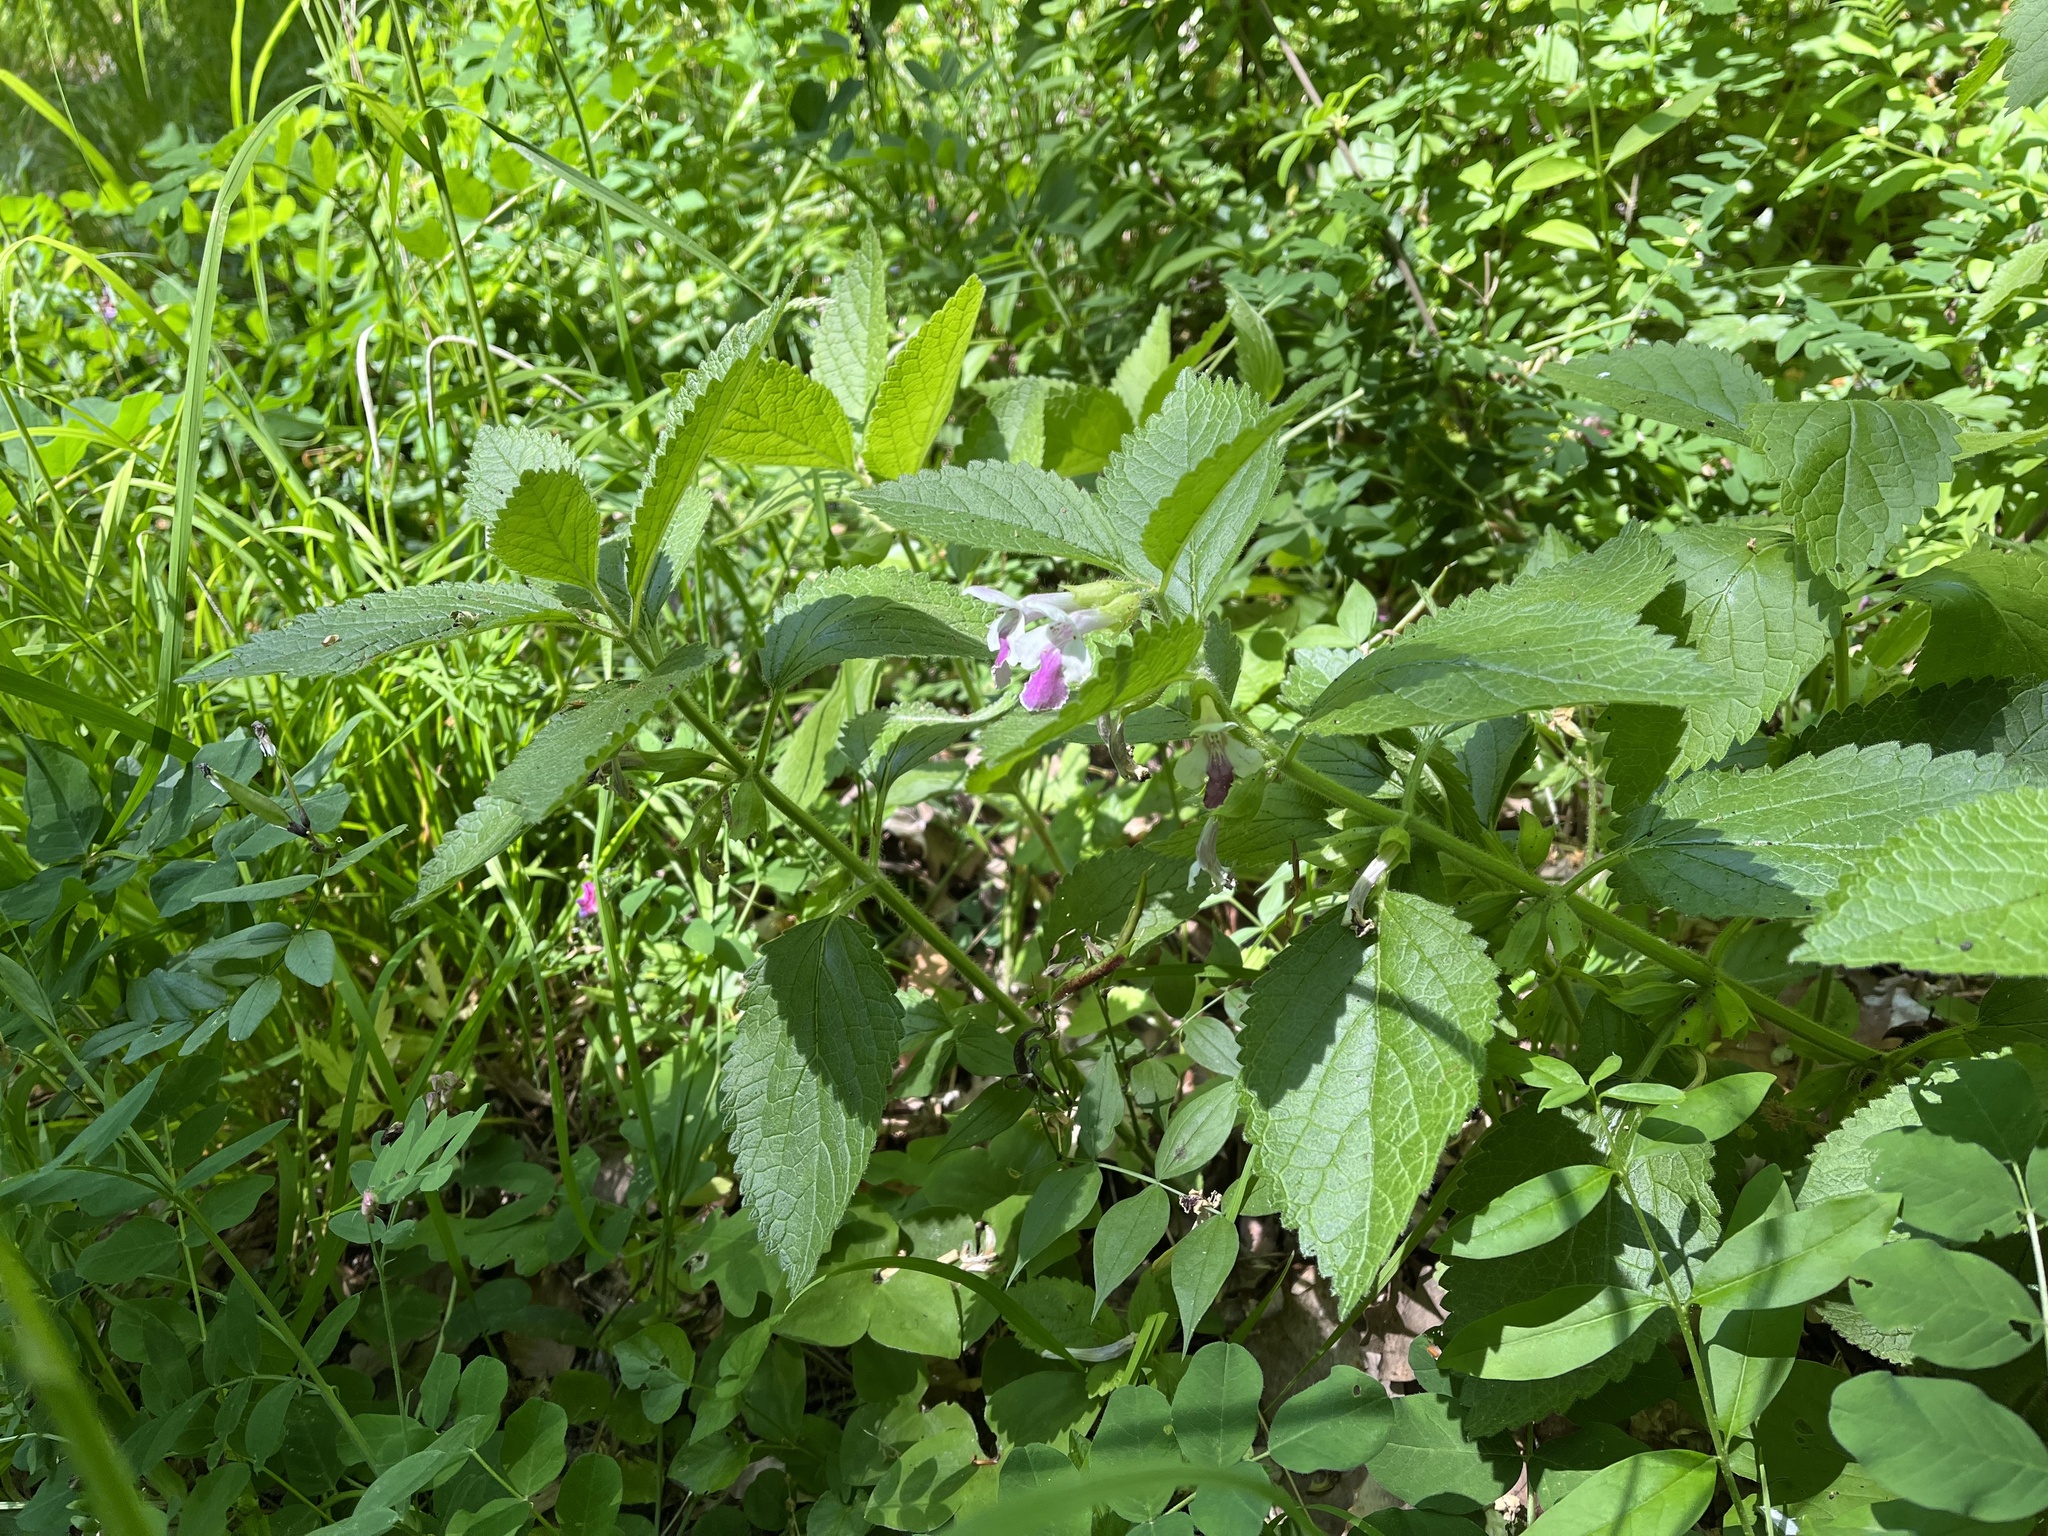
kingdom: Plantae
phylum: Tracheophyta
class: Magnoliopsida
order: Lamiales
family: Lamiaceae
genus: Melittis
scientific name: Melittis melissophyllum
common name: Bastard balm
